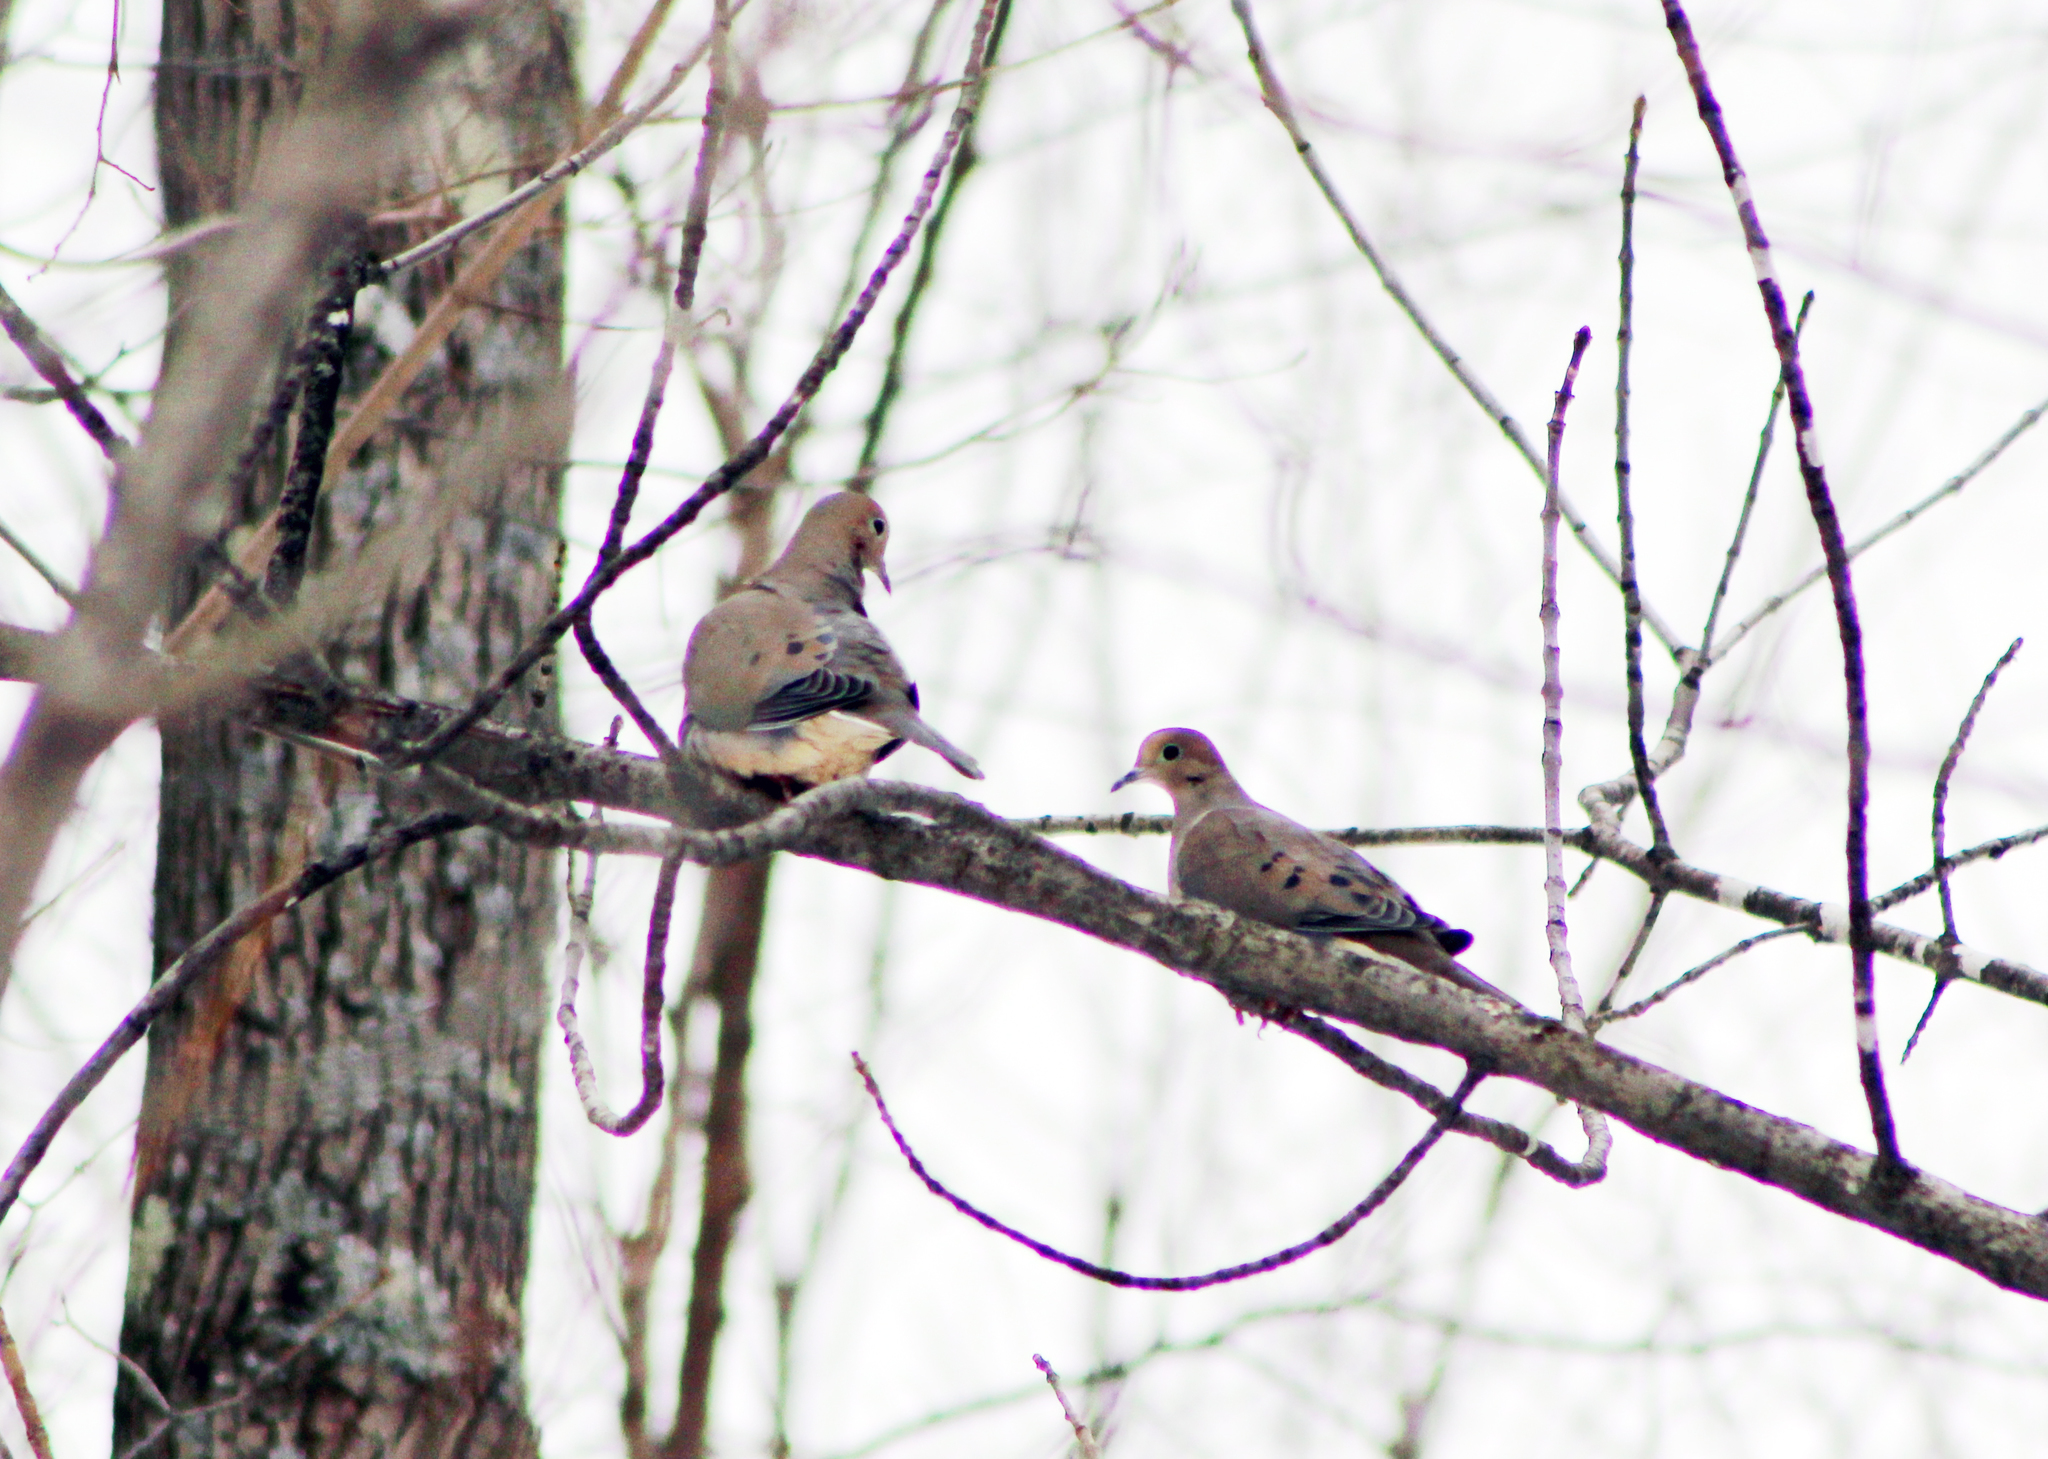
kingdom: Animalia
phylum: Chordata
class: Aves
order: Columbiformes
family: Columbidae
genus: Zenaida
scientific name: Zenaida macroura
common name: Mourning dove
